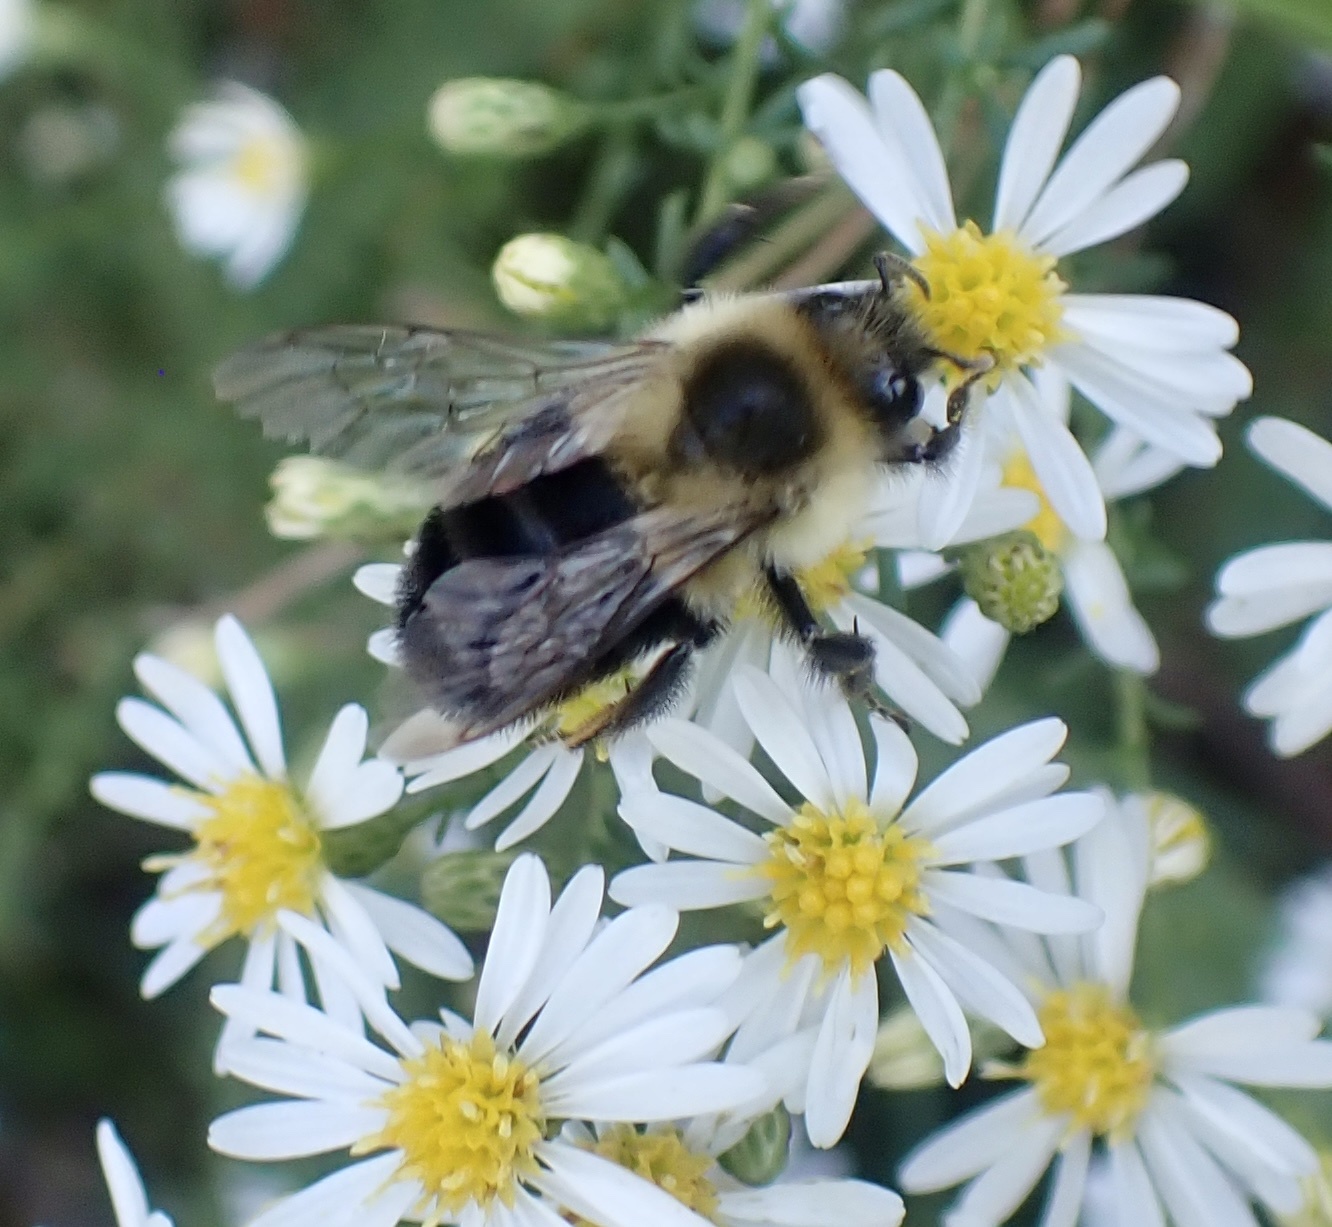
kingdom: Animalia
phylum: Arthropoda
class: Insecta
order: Hymenoptera
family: Apidae
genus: Bombus
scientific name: Bombus impatiens
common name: Common eastern bumble bee
